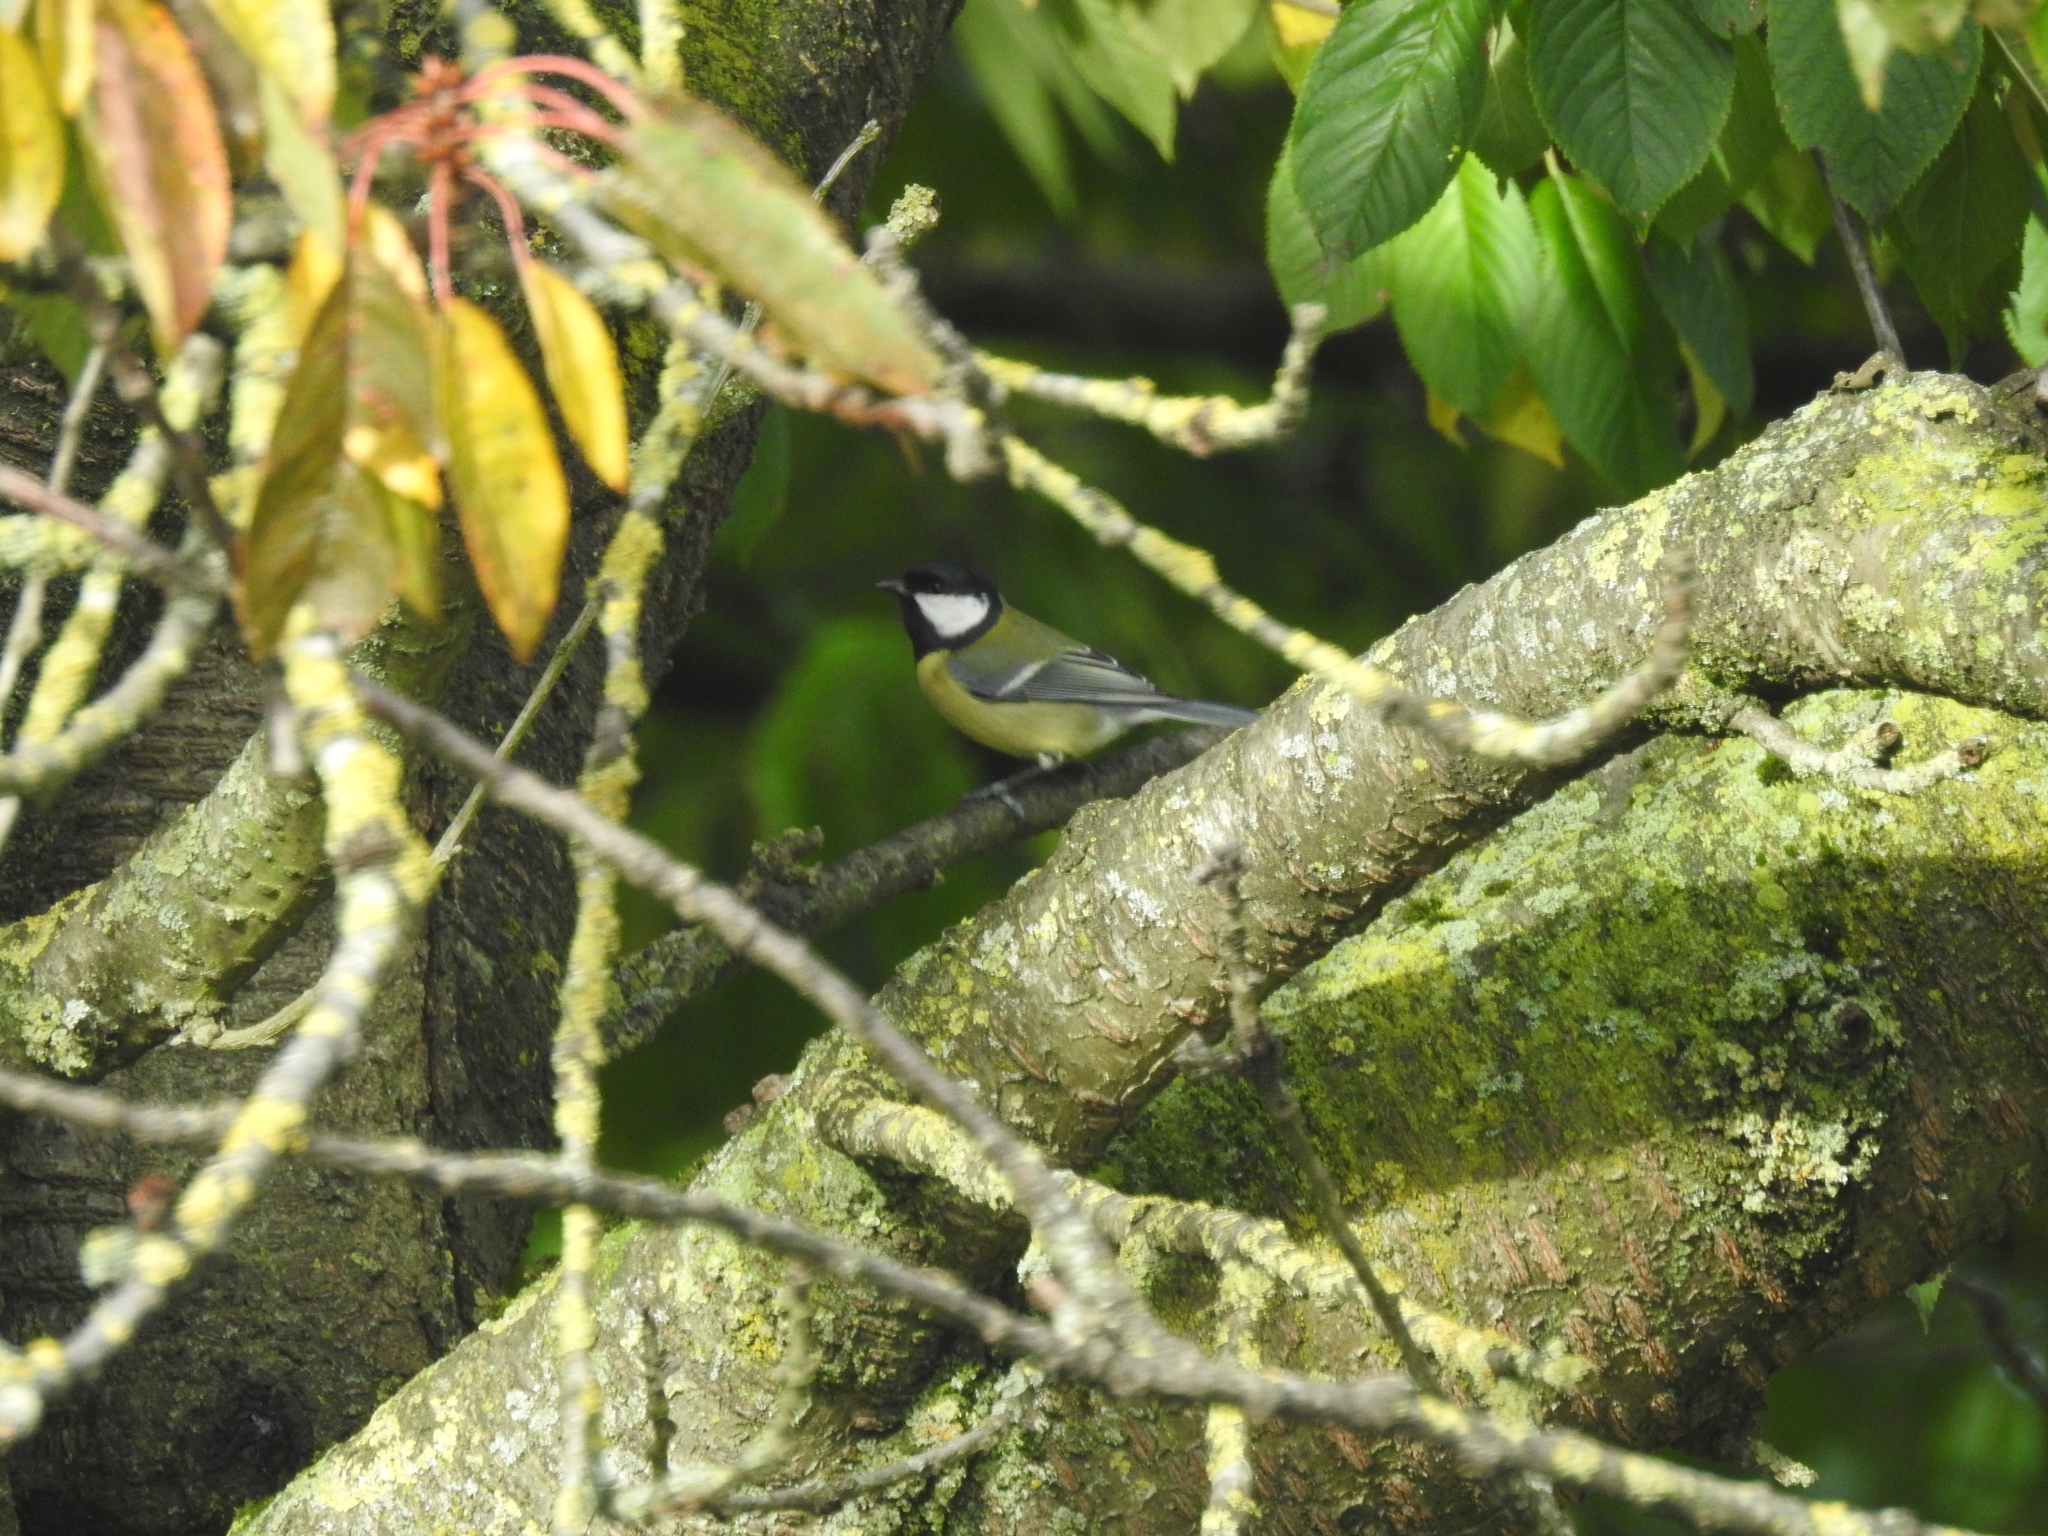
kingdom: Animalia
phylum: Chordata
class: Aves
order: Passeriformes
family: Paridae
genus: Parus
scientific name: Parus major
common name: Great tit
